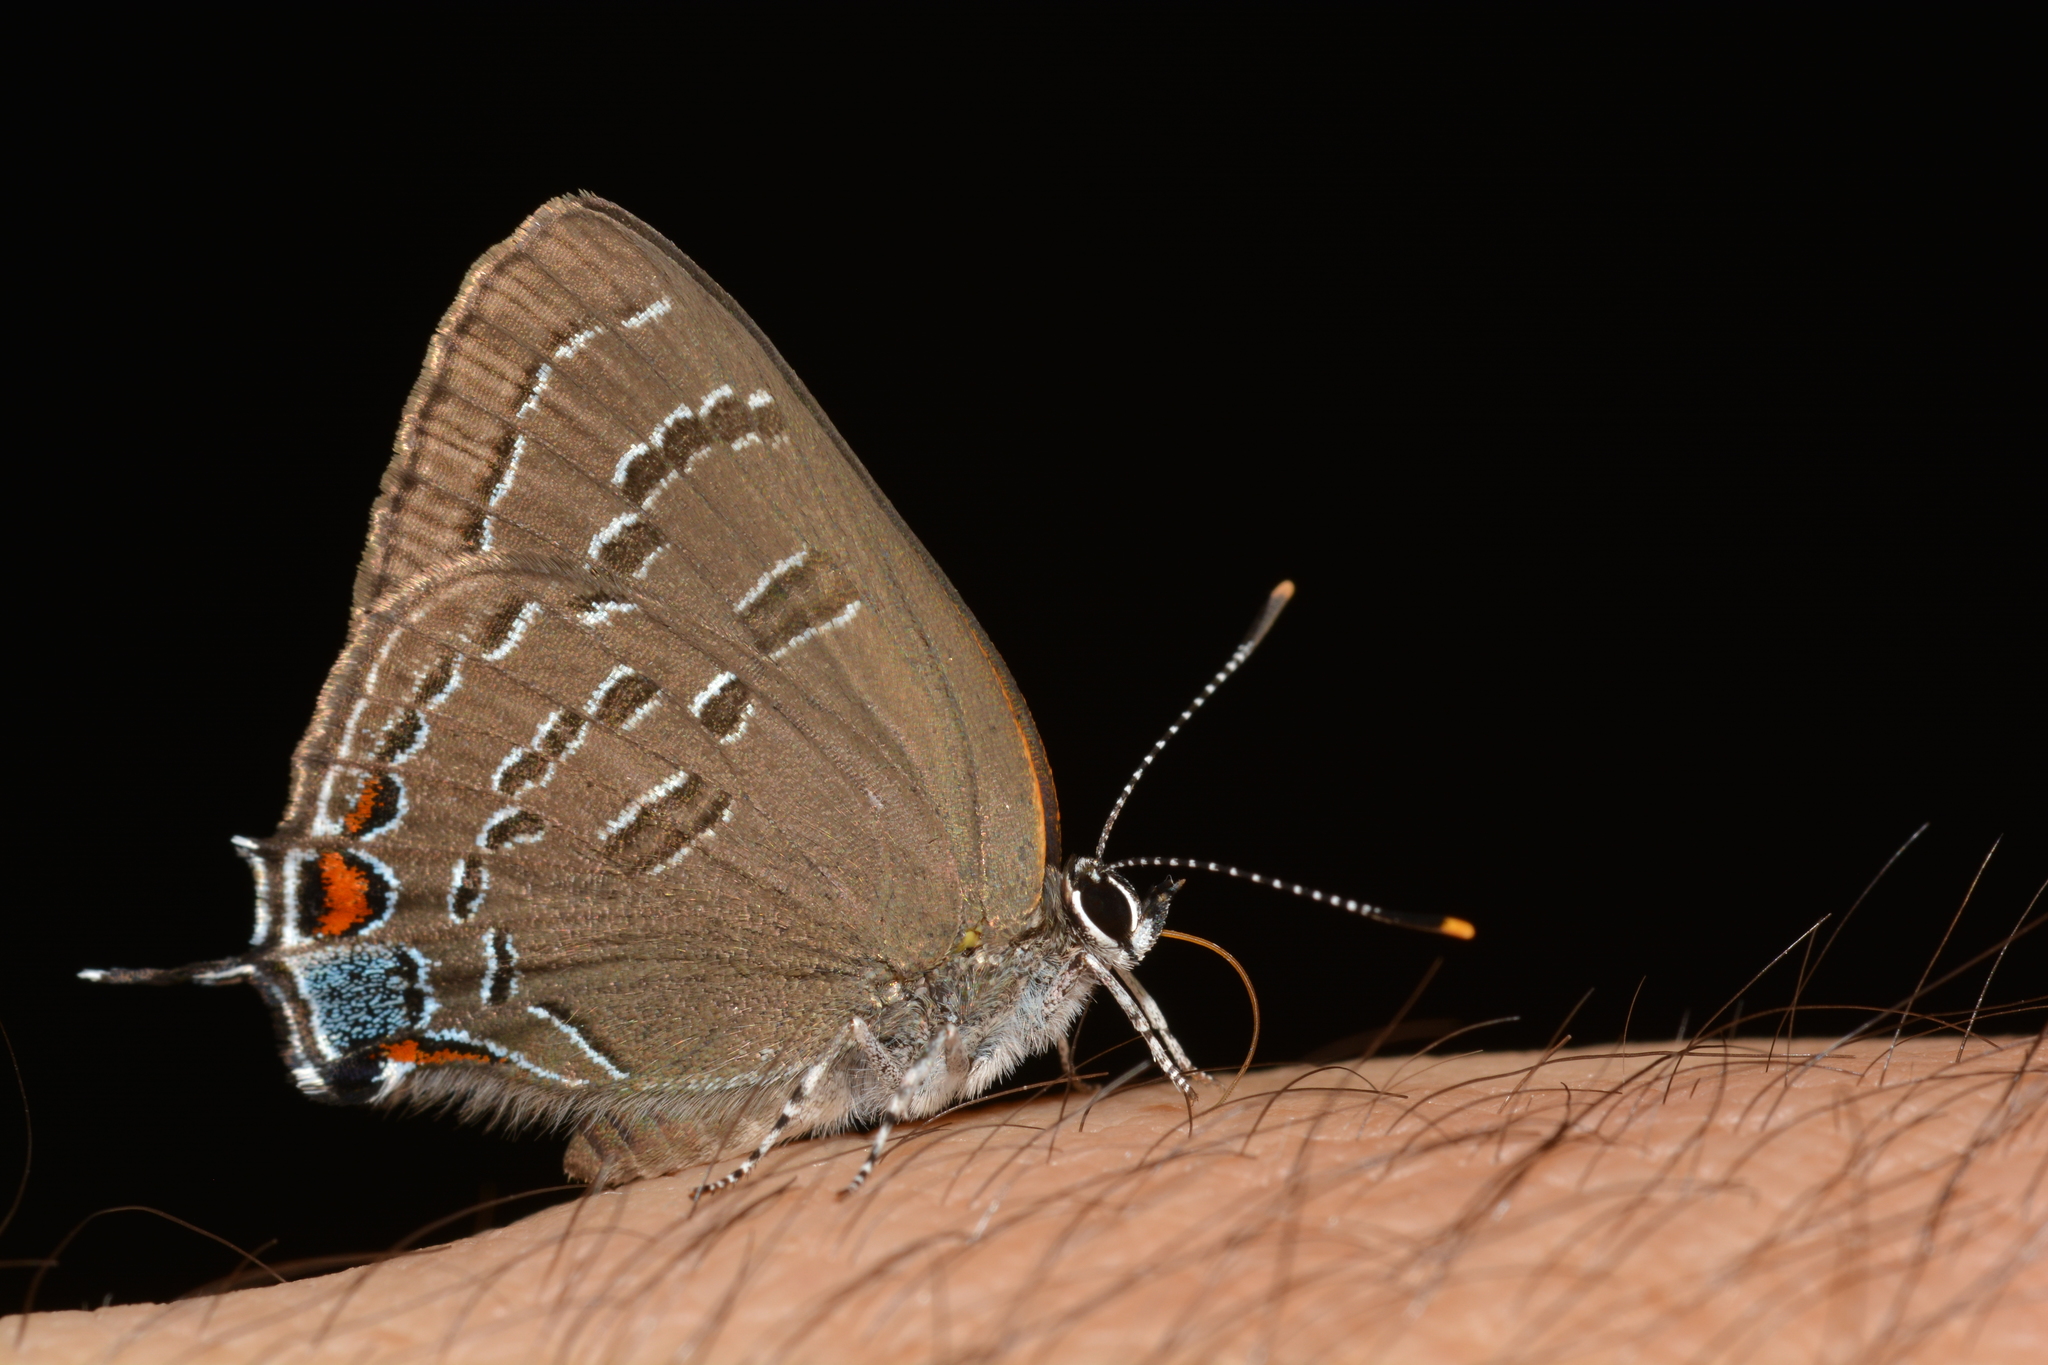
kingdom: Animalia
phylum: Arthropoda
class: Insecta
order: Lepidoptera
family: Lycaenidae
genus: Satyrium
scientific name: Satyrium calanus
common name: Banded hairstreak
